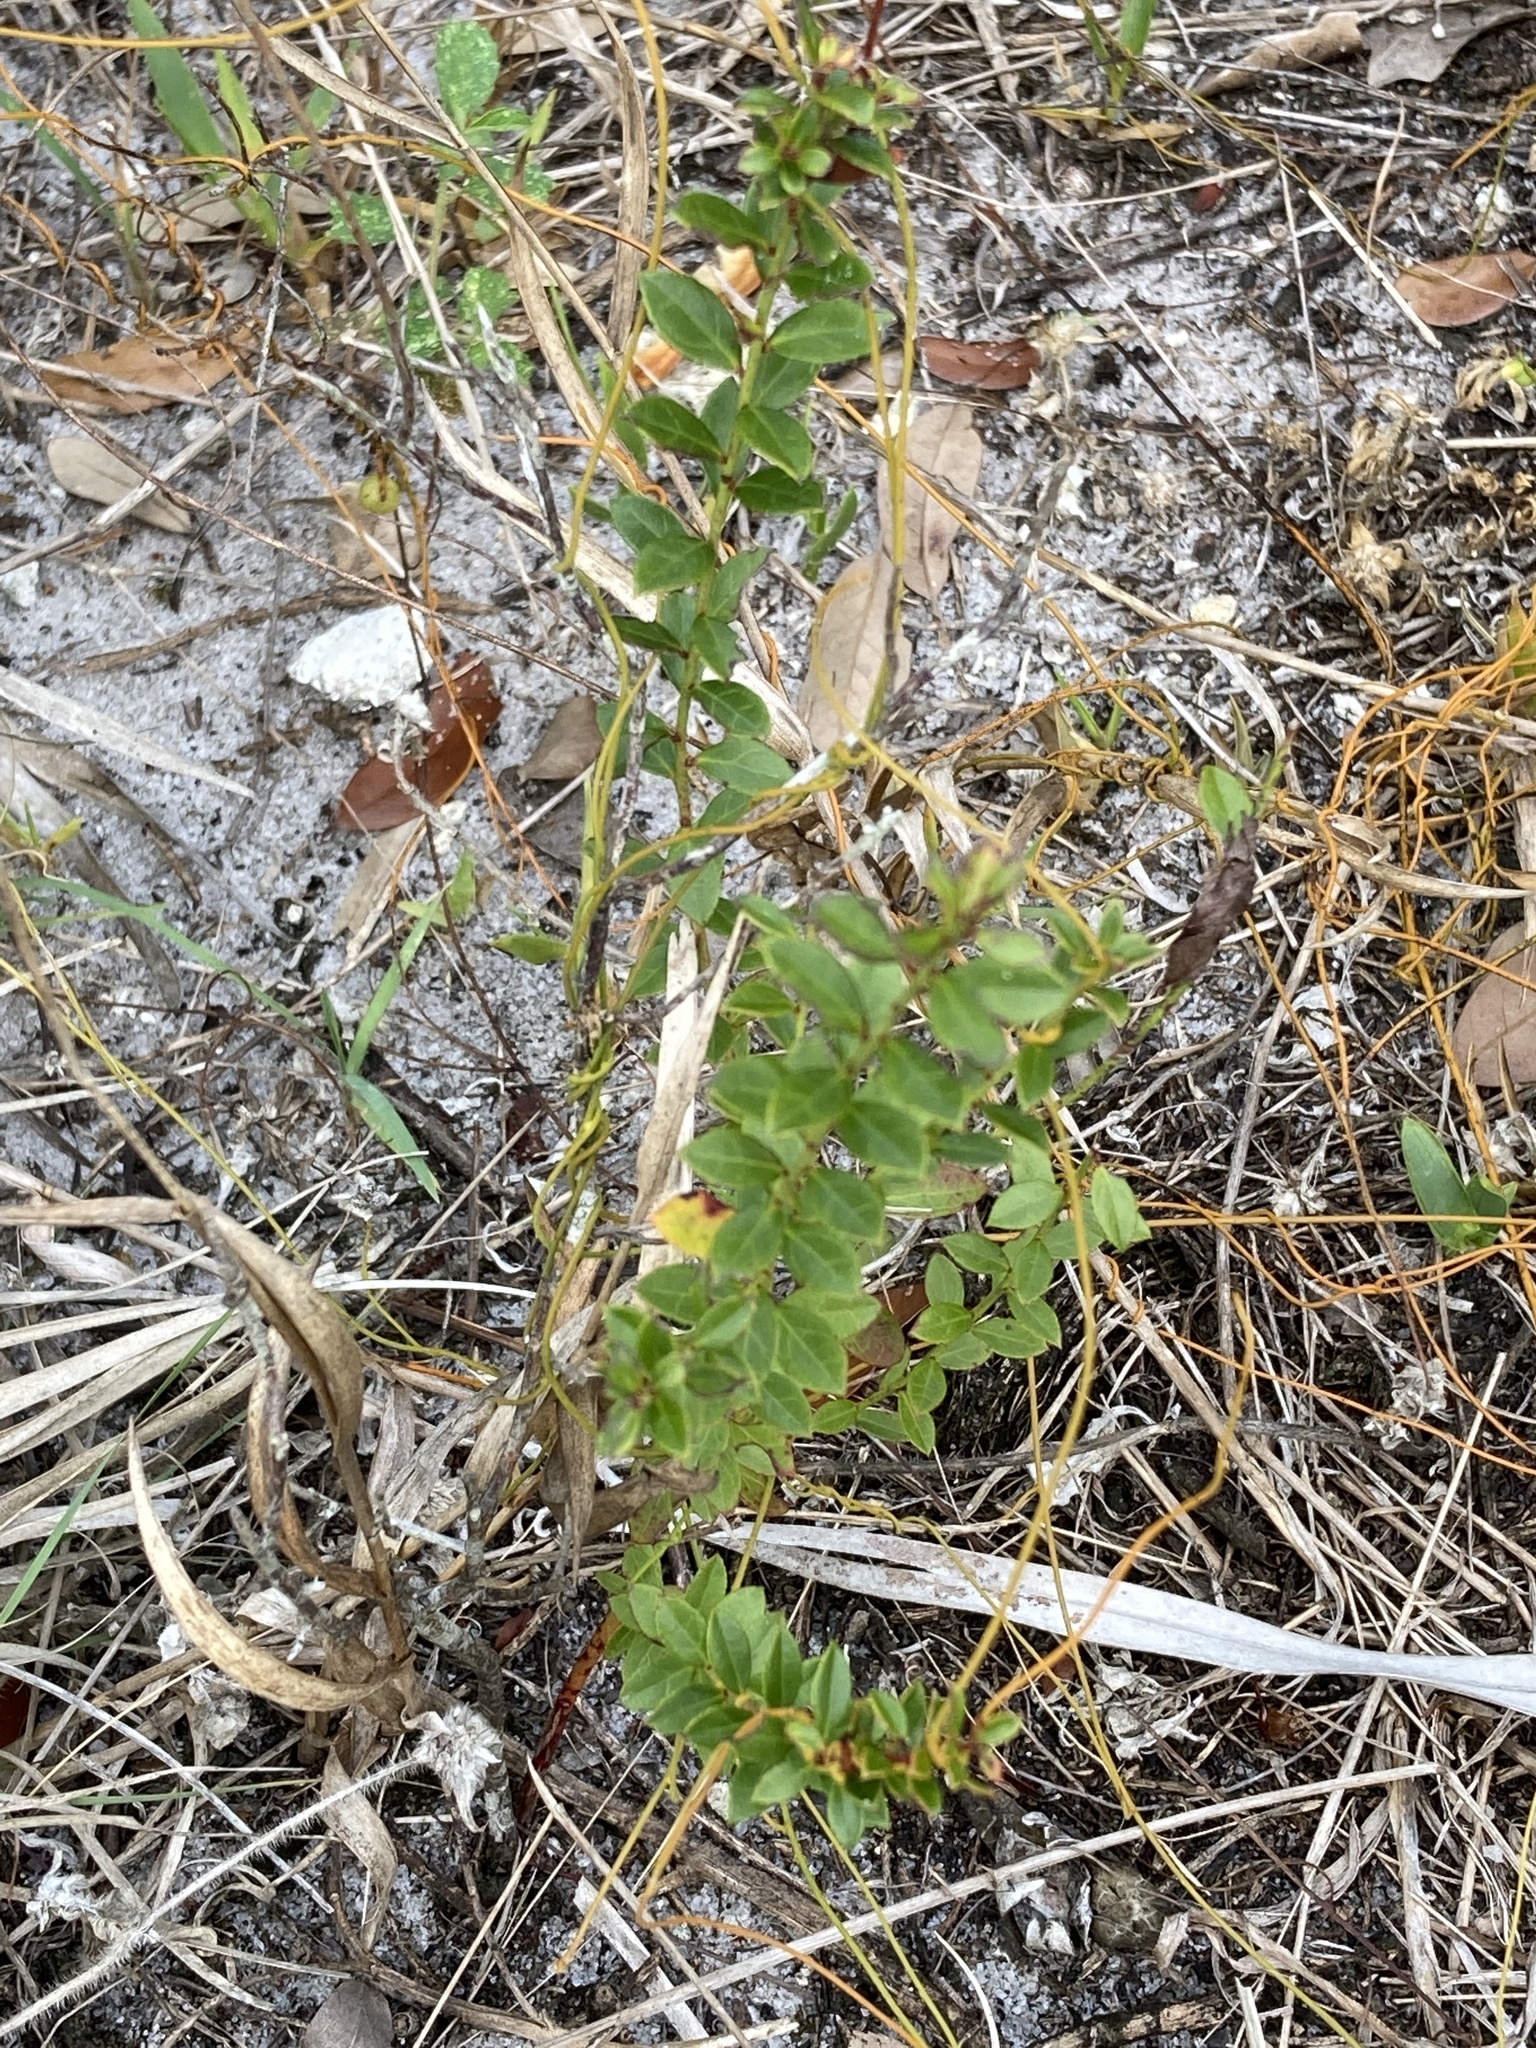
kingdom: Plantae
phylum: Tracheophyta
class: Magnoliopsida
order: Ericales
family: Ericaceae
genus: Vaccinium
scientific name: Vaccinium myrsinites
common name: Evergreen blueberry
